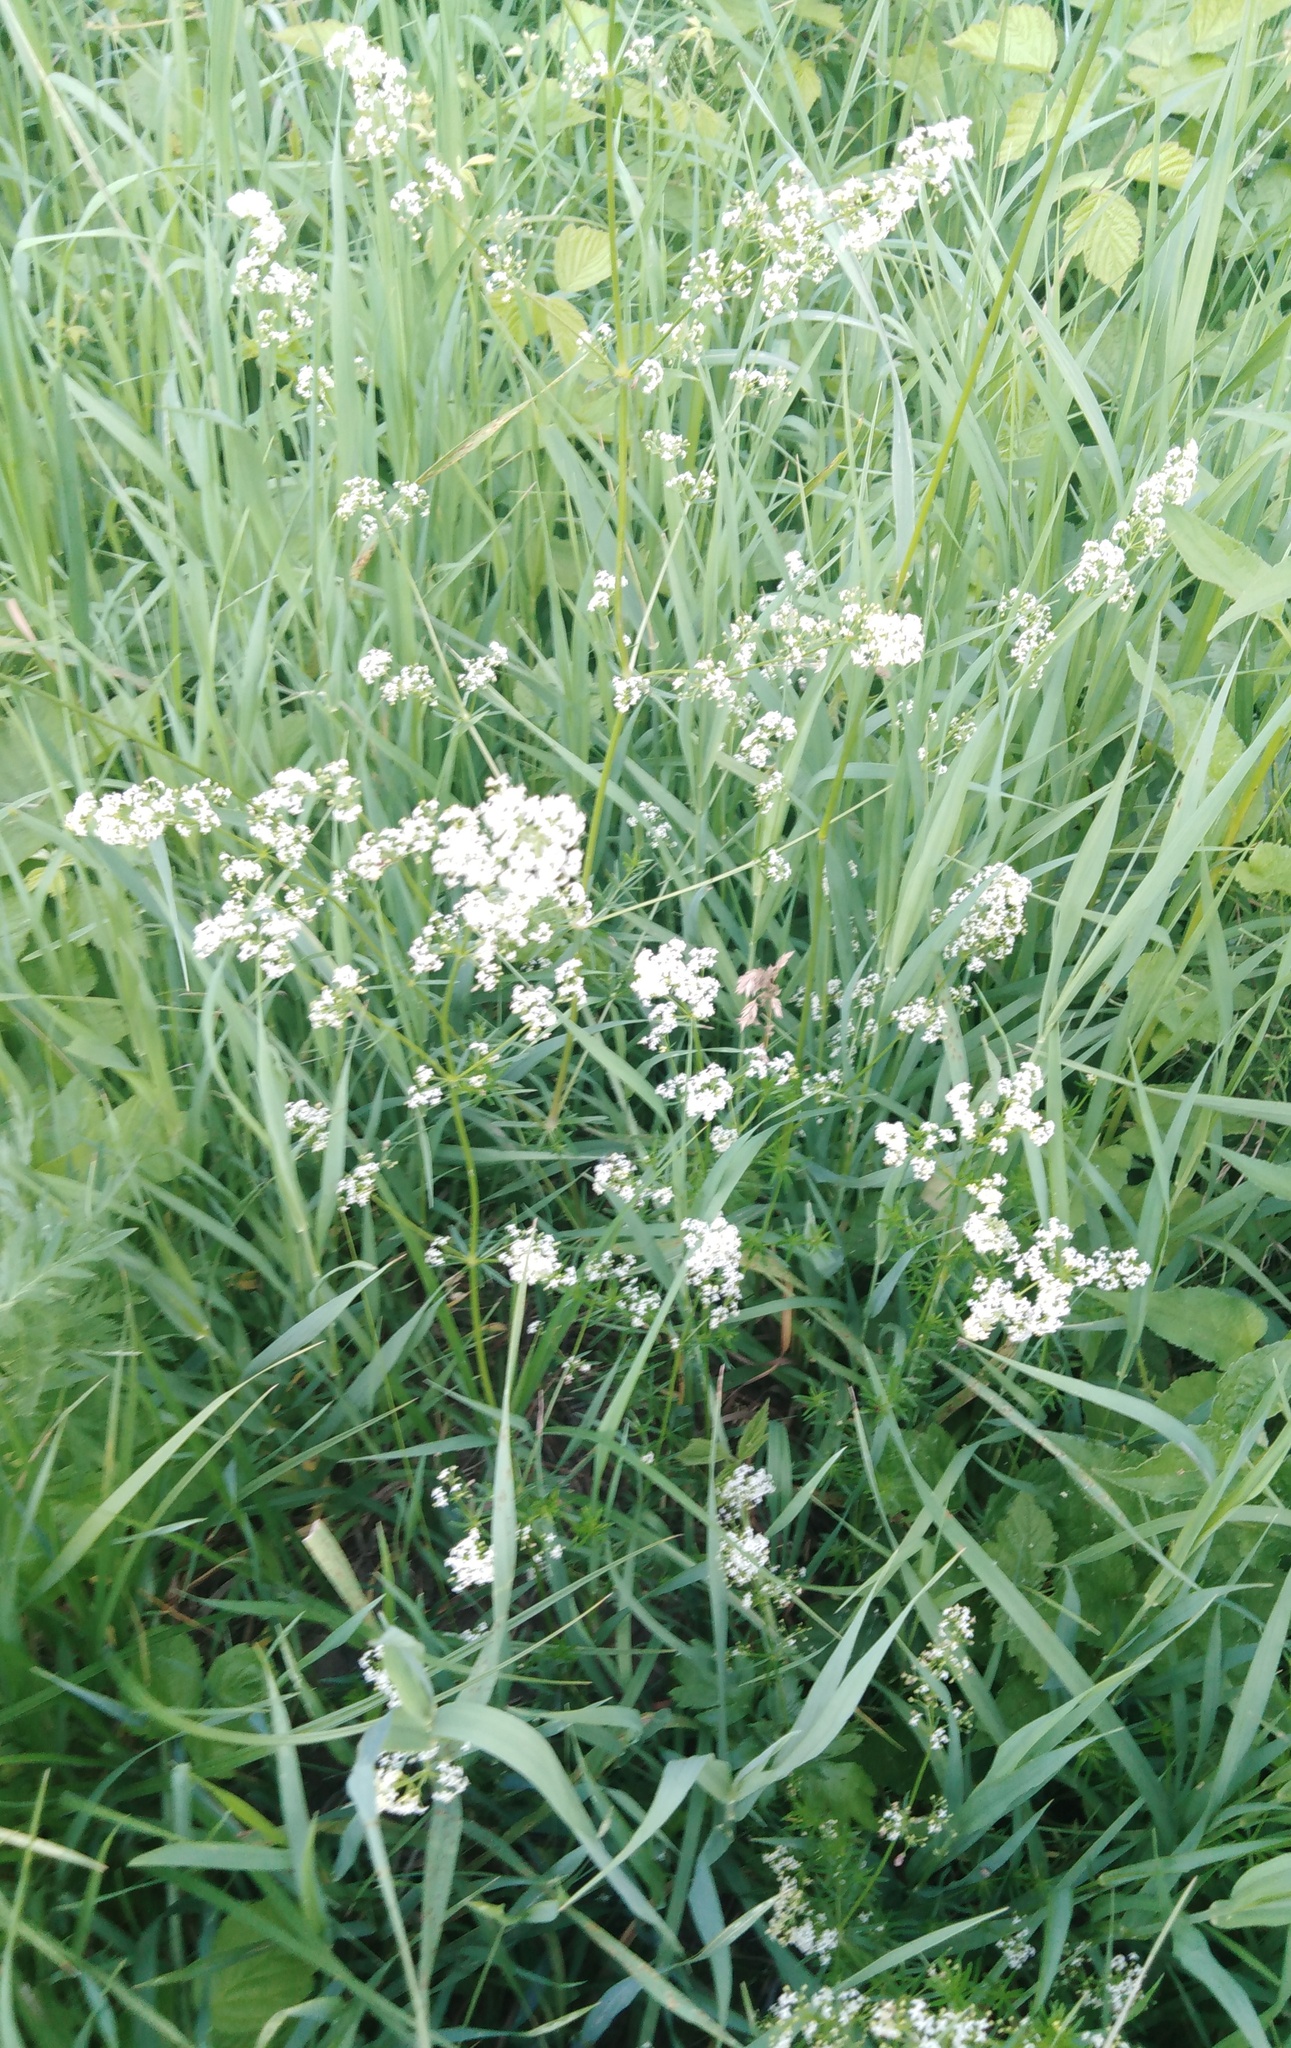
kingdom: Plantae
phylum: Tracheophyta
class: Magnoliopsida
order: Gentianales
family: Rubiaceae
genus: Galium
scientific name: Galium mollugo
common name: Hedge bedstraw
